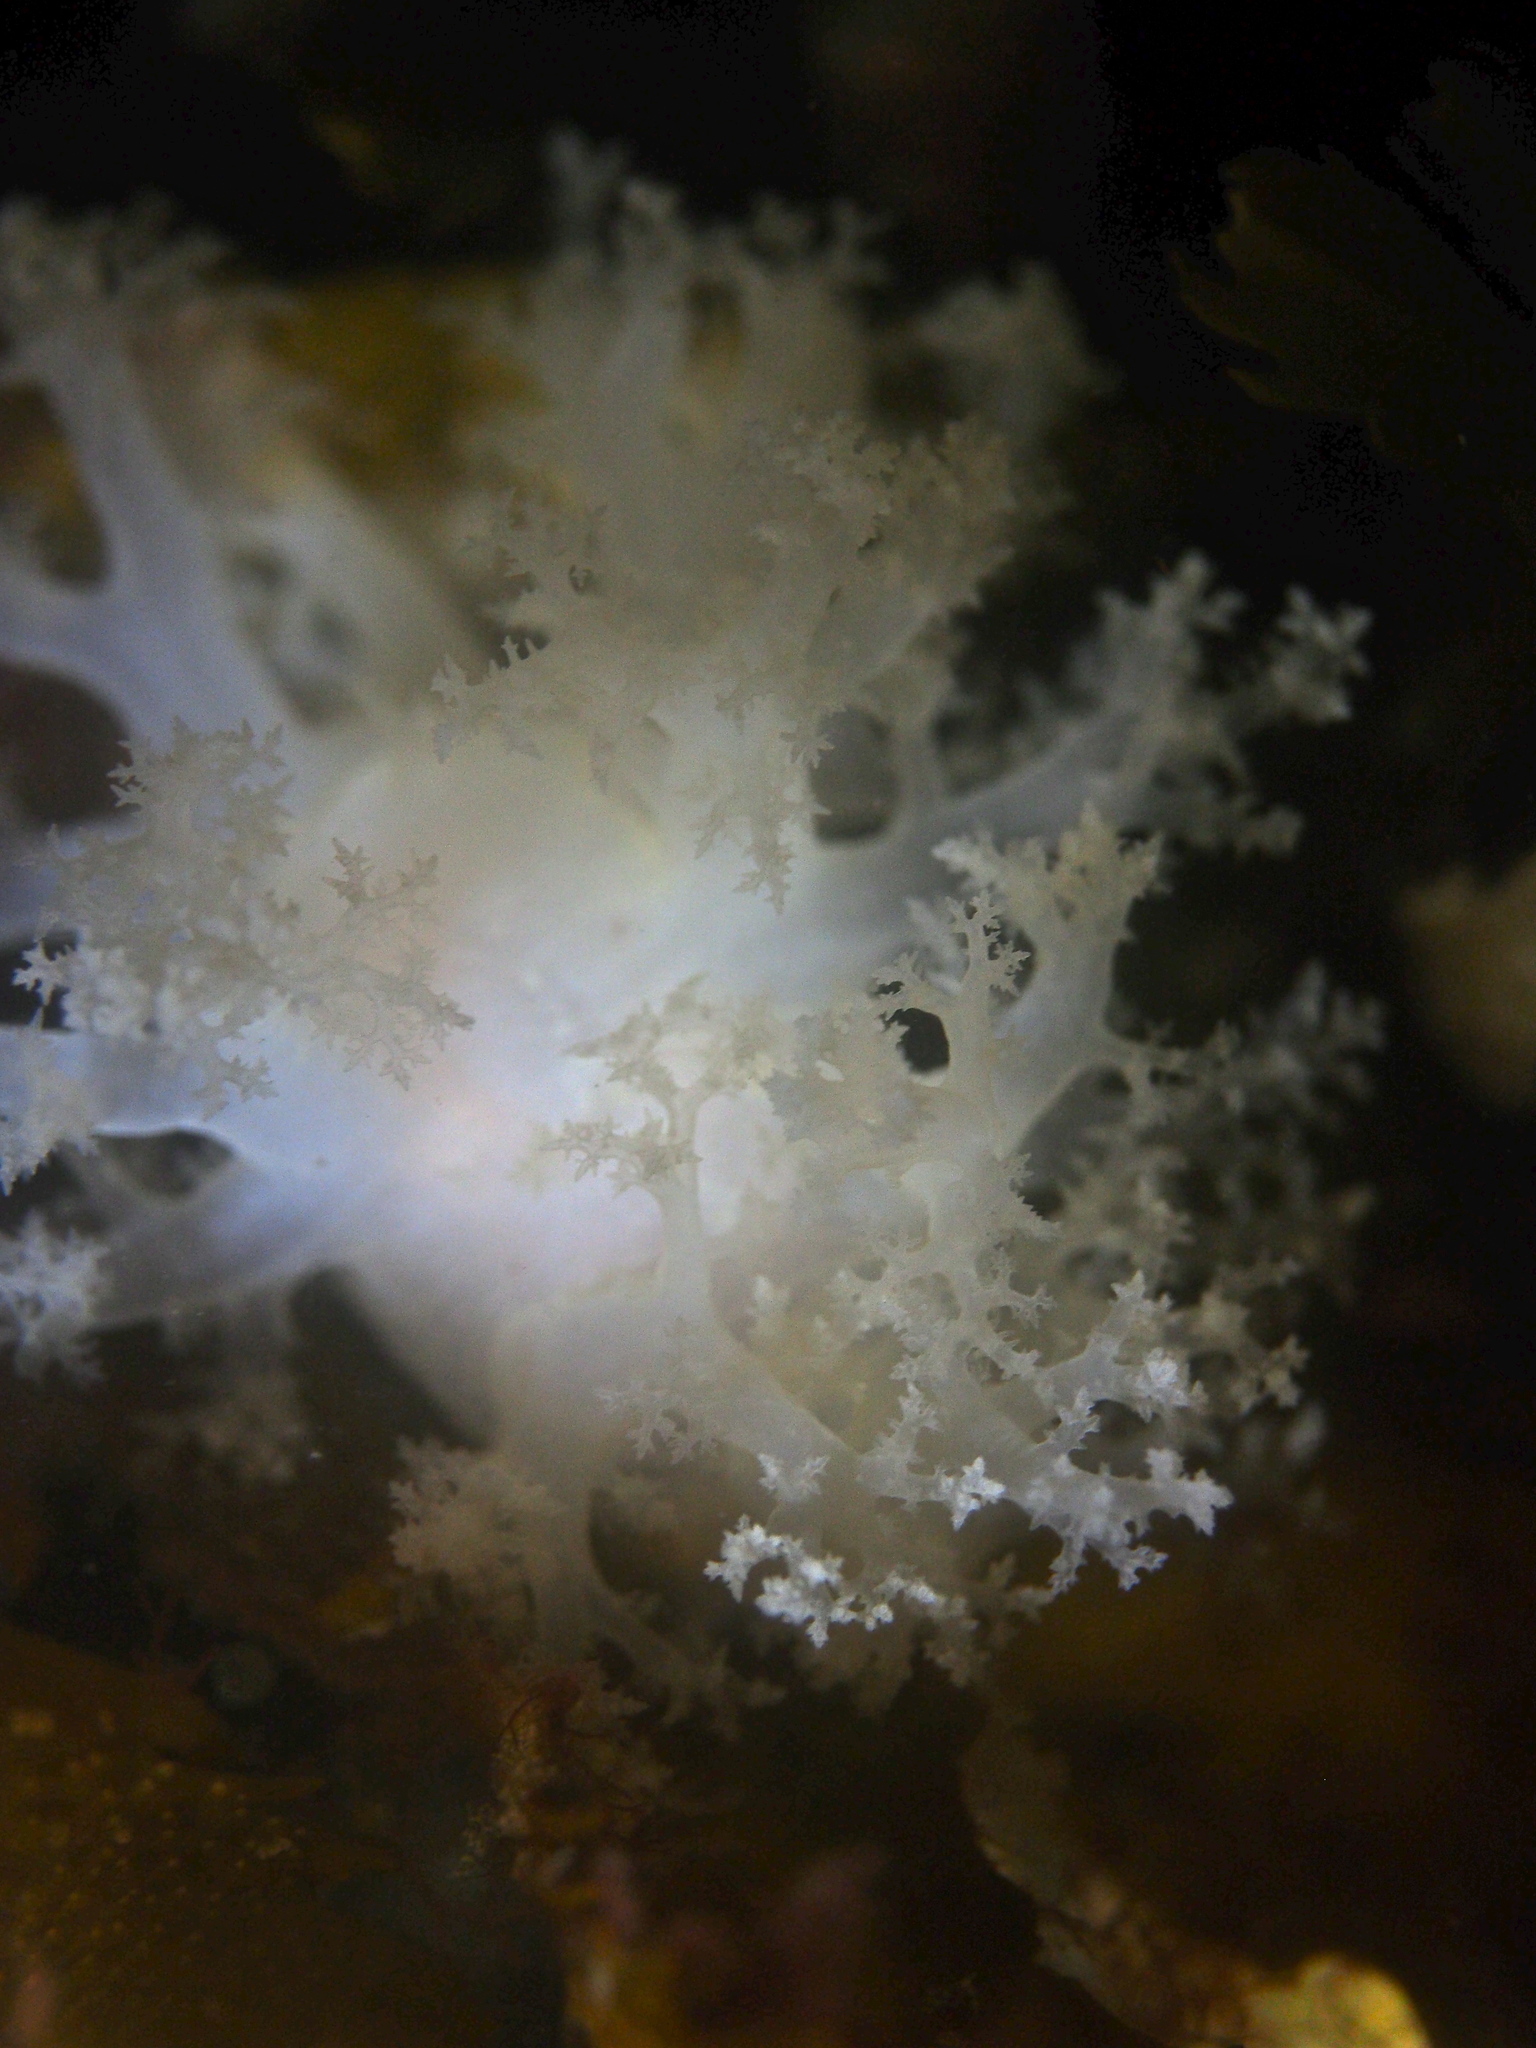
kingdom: Animalia
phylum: Mollusca
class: Gastropoda
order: Nudibranchia
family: Dendronotidae
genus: Dendronotus
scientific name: Dendronotus lacteus
